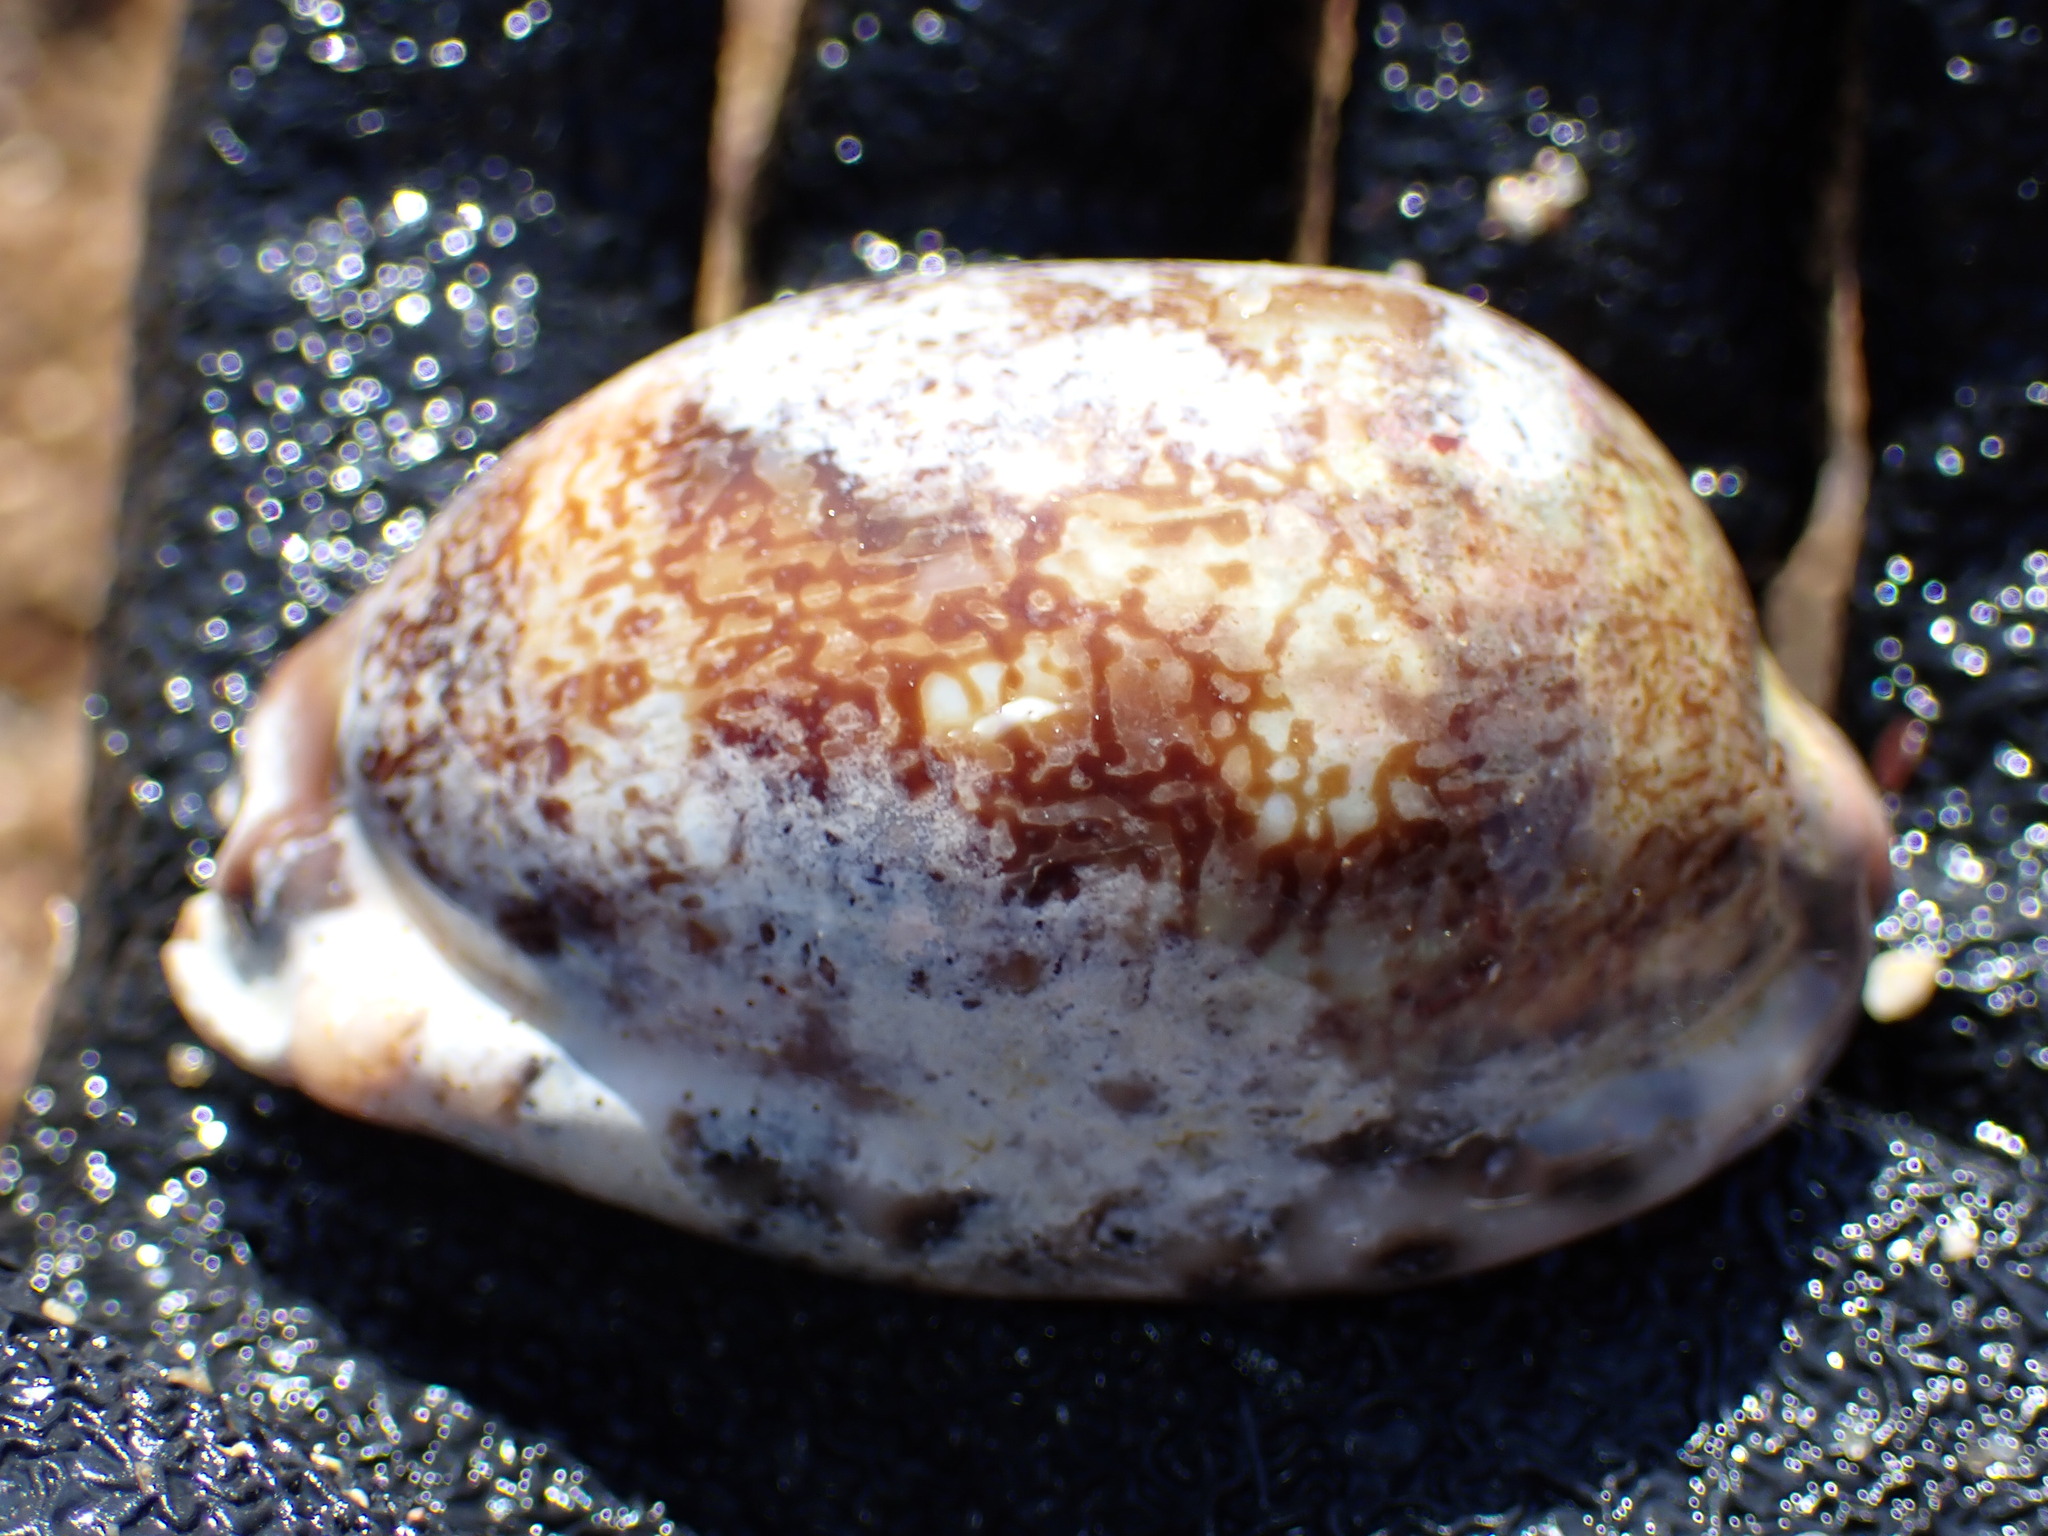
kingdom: Animalia
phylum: Mollusca
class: Gastropoda
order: Littorinimorpha
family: Cypraeidae
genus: Mauritia
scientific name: Mauritia arabica
